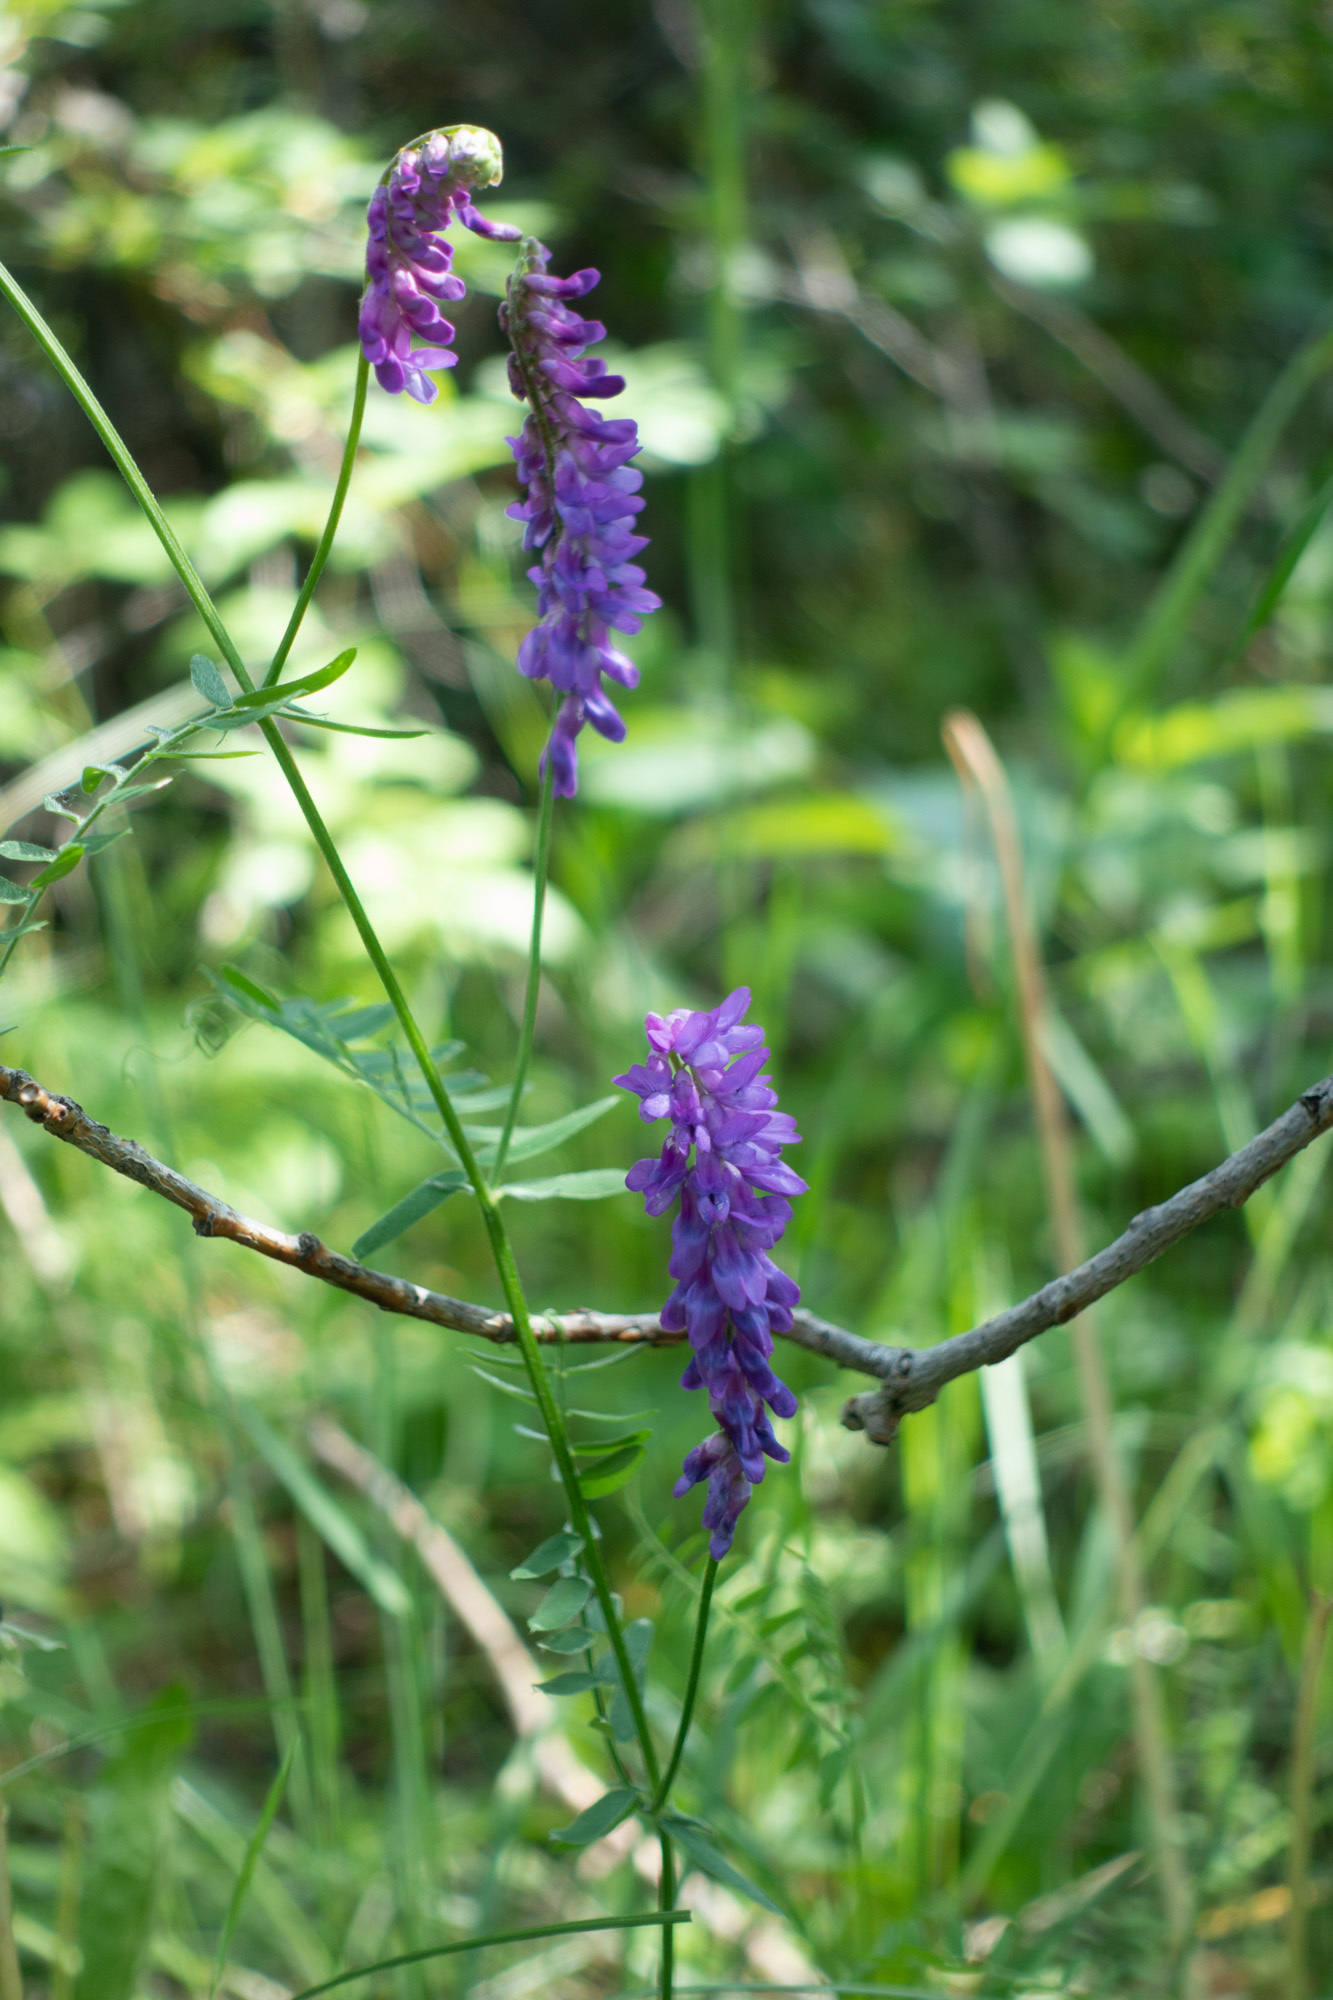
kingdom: Plantae
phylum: Tracheophyta
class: Magnoliopsida
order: Fabales
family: Fabaceae
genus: Vicia
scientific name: Vicia cracca
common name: Bird vetch
